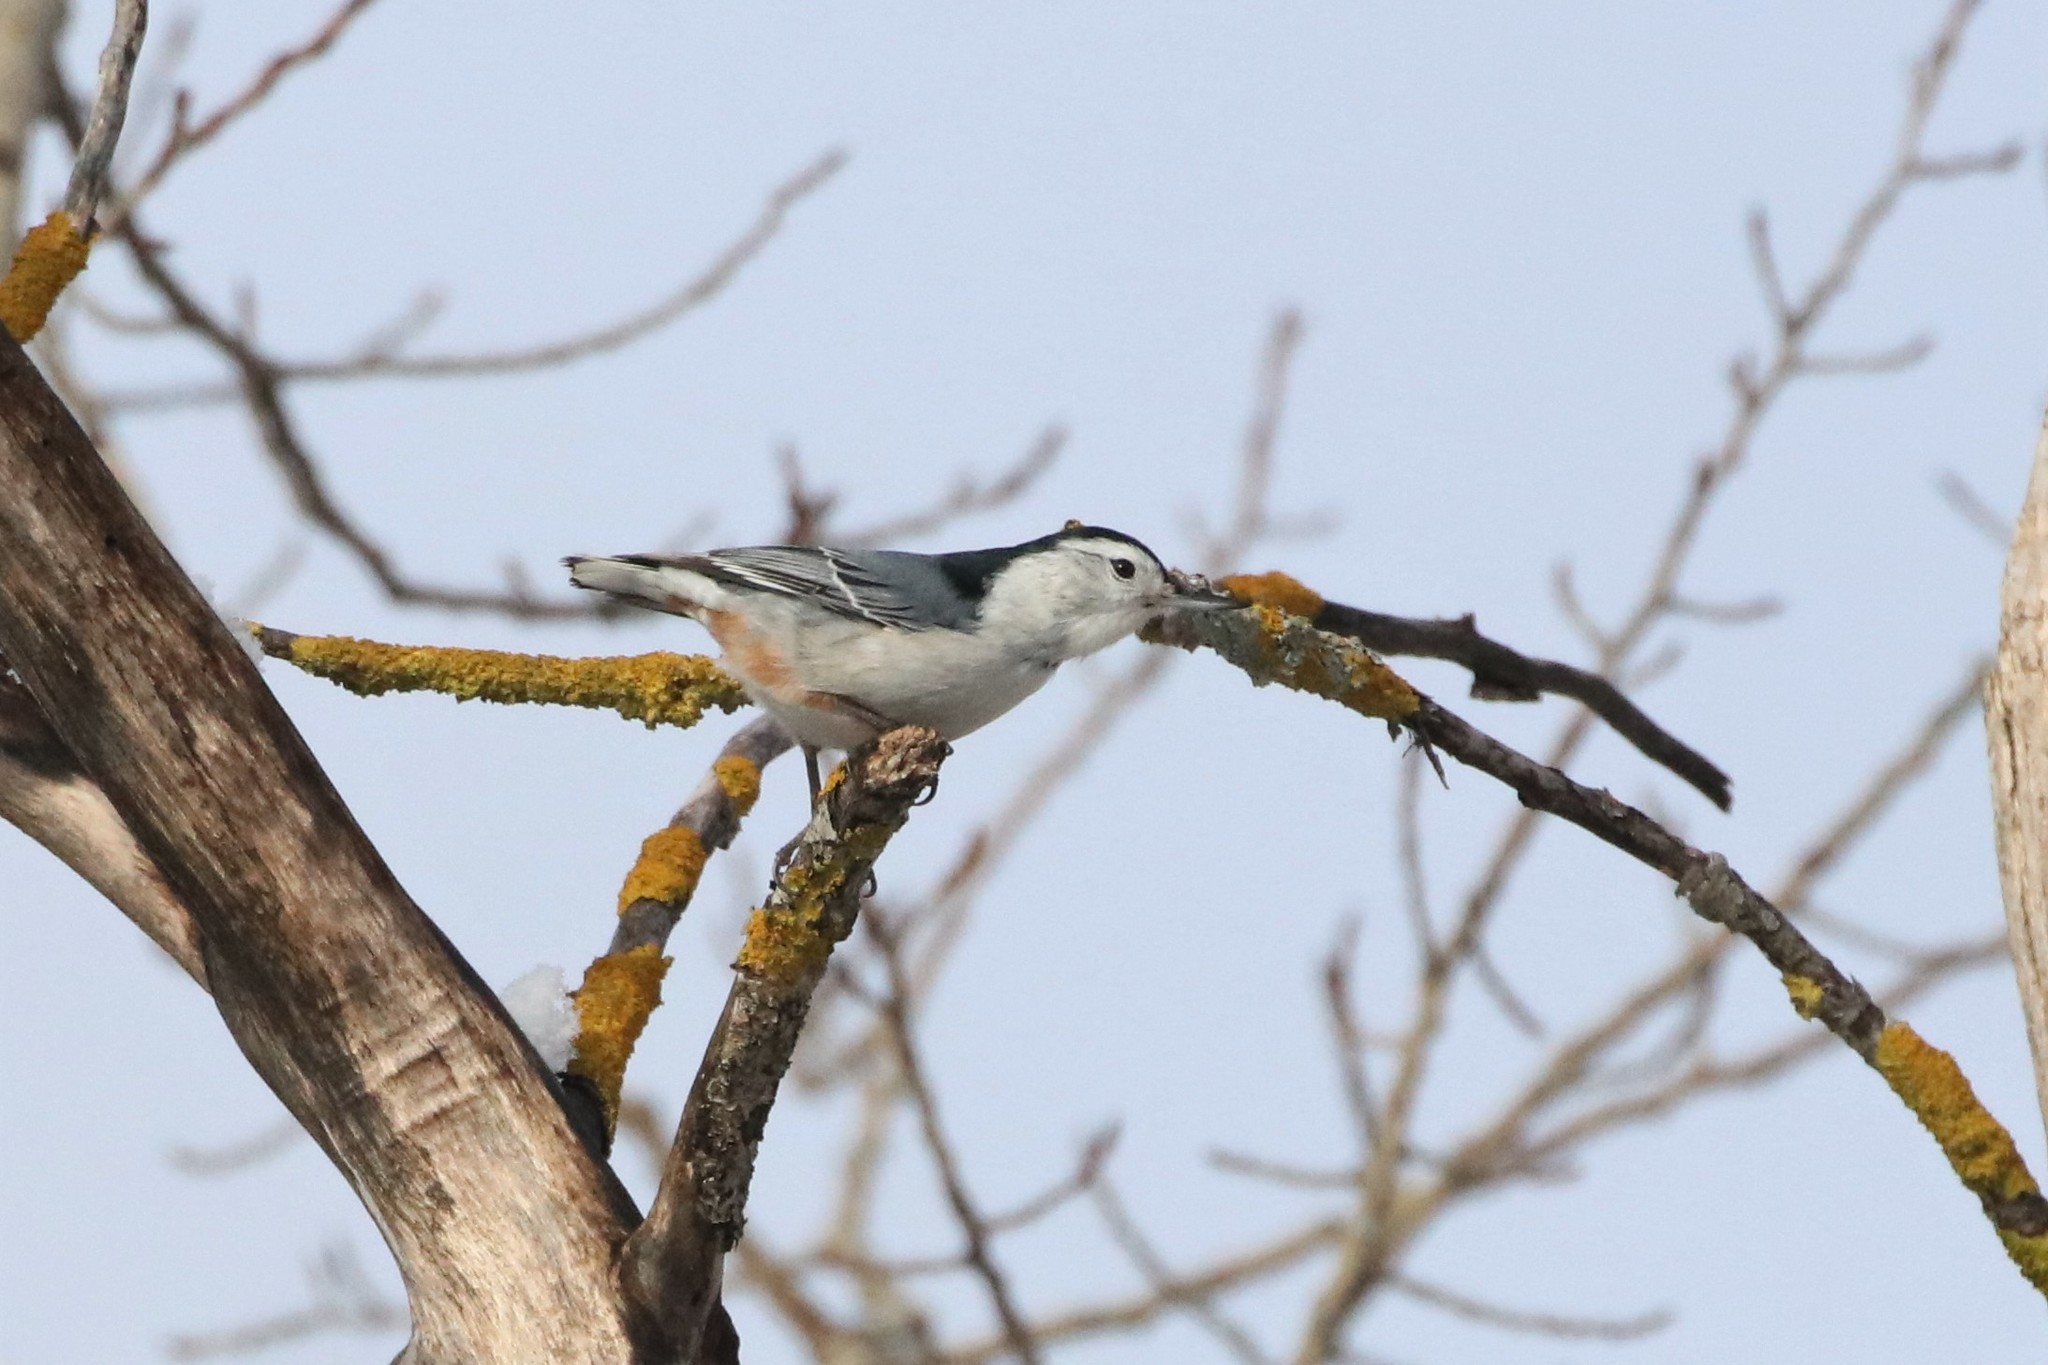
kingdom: Animalia
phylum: Chordata
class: Aves
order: Passeriformes
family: Sittidae
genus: Sitta
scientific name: Sitta carolinensis
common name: White-breasted nuthatch
